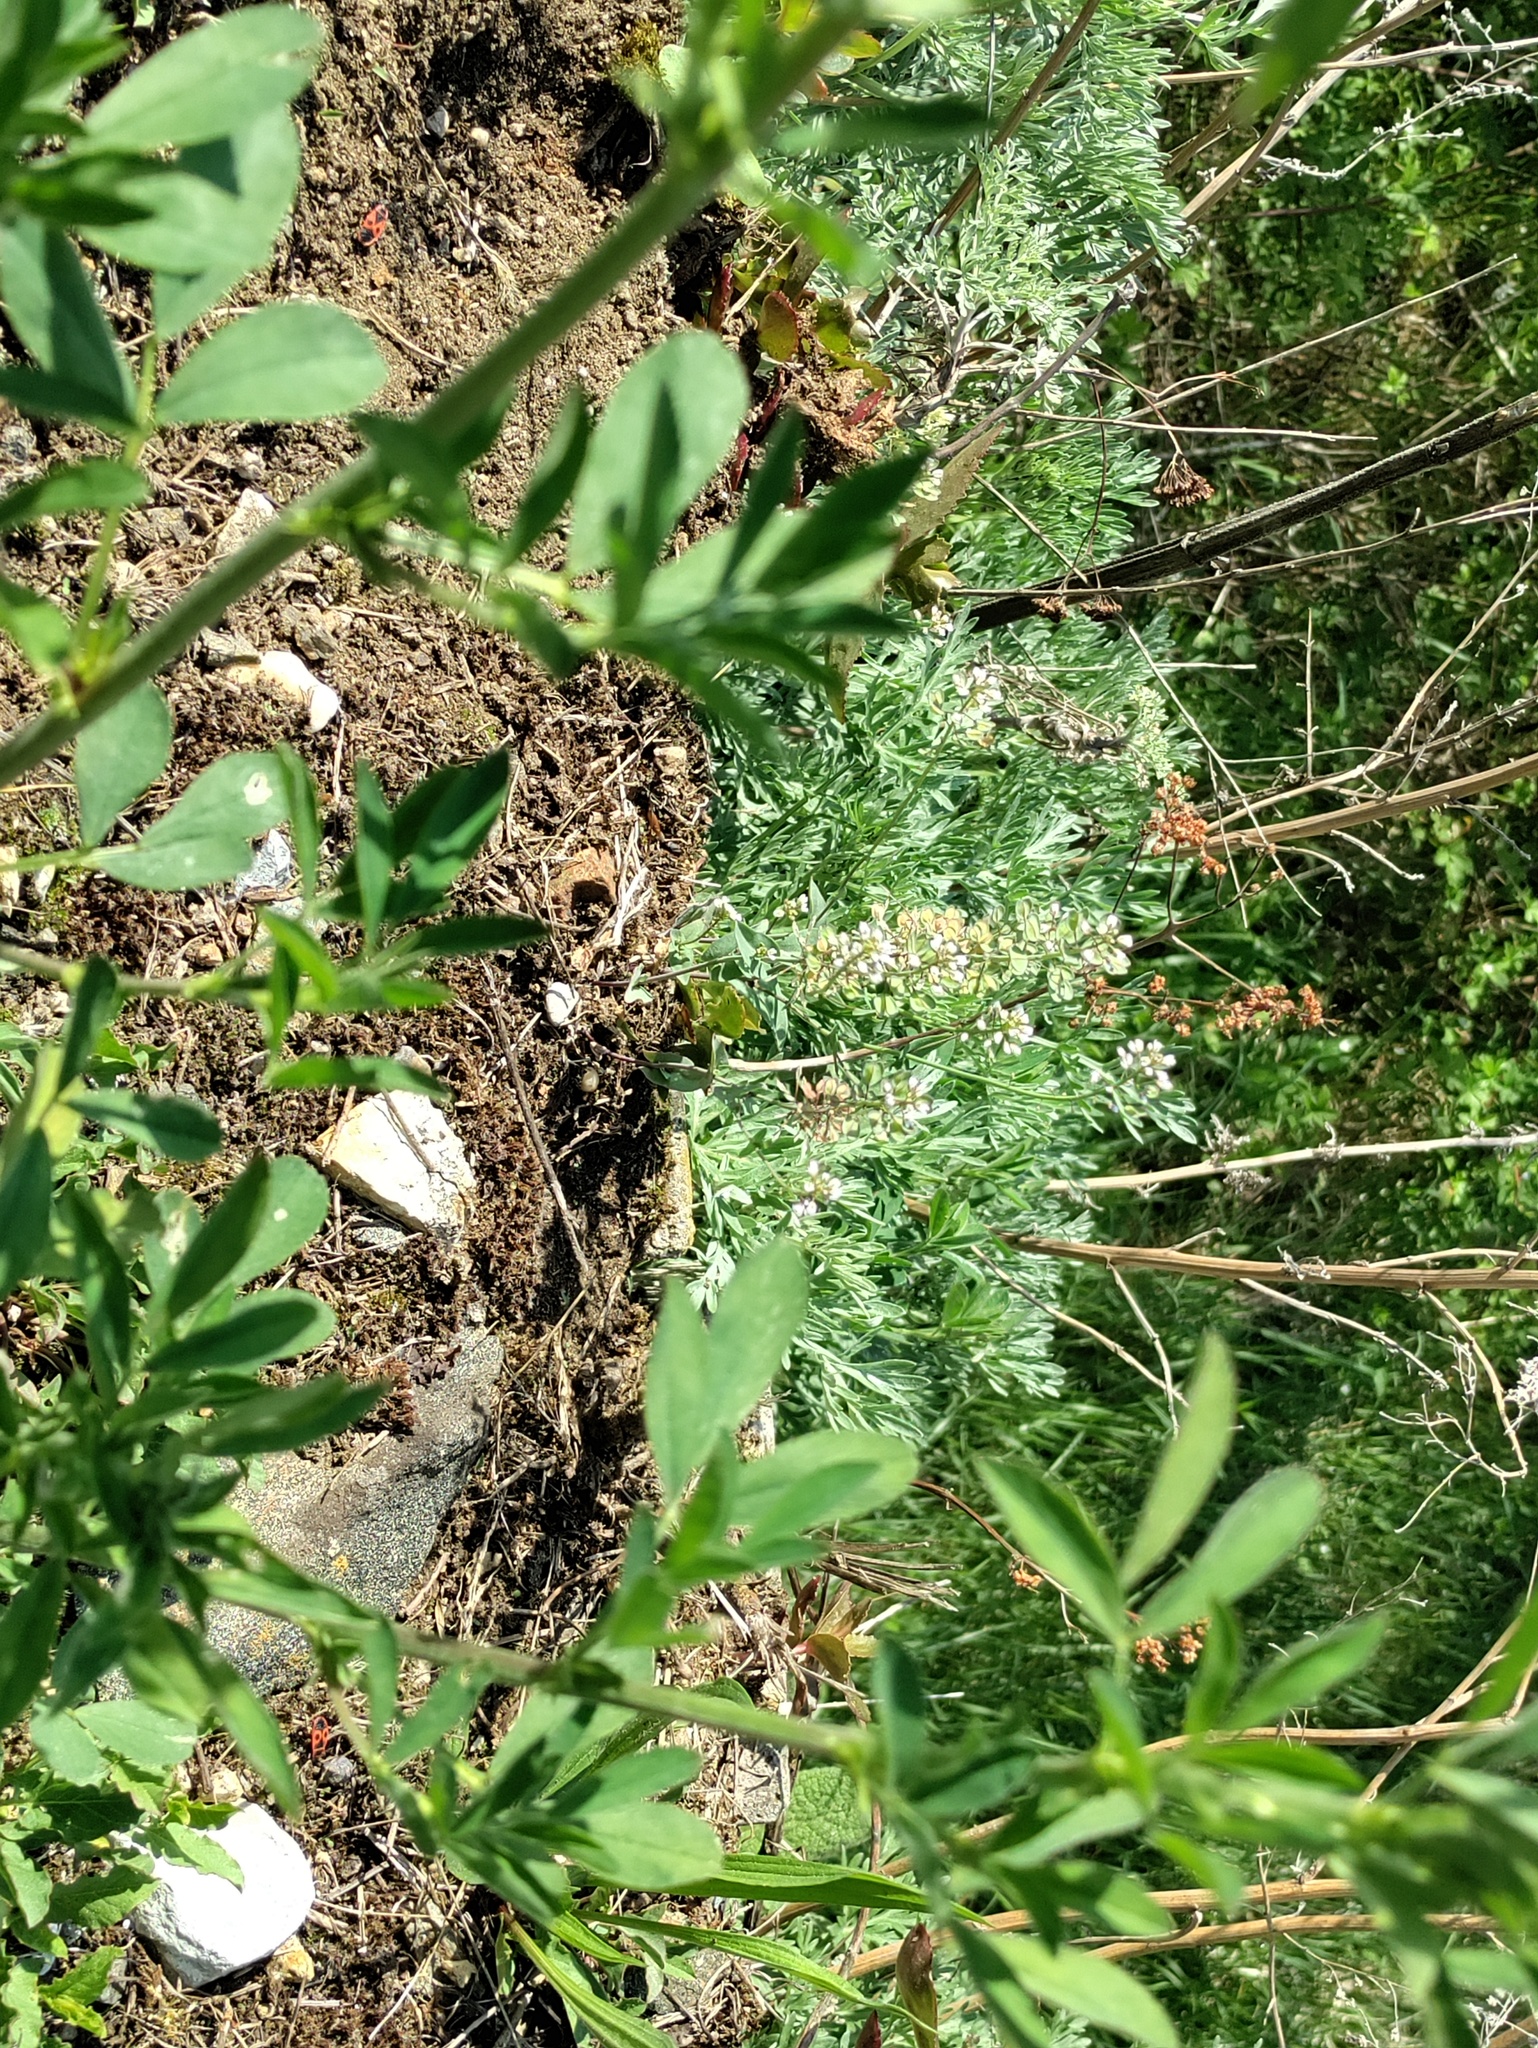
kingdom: Plantae
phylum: Tracheophyta
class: Magnoliopsida
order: Brassicales
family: Brassicaceae
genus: Noccaea
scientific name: Noccaea perfoliata
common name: Perfoliate pennycress
